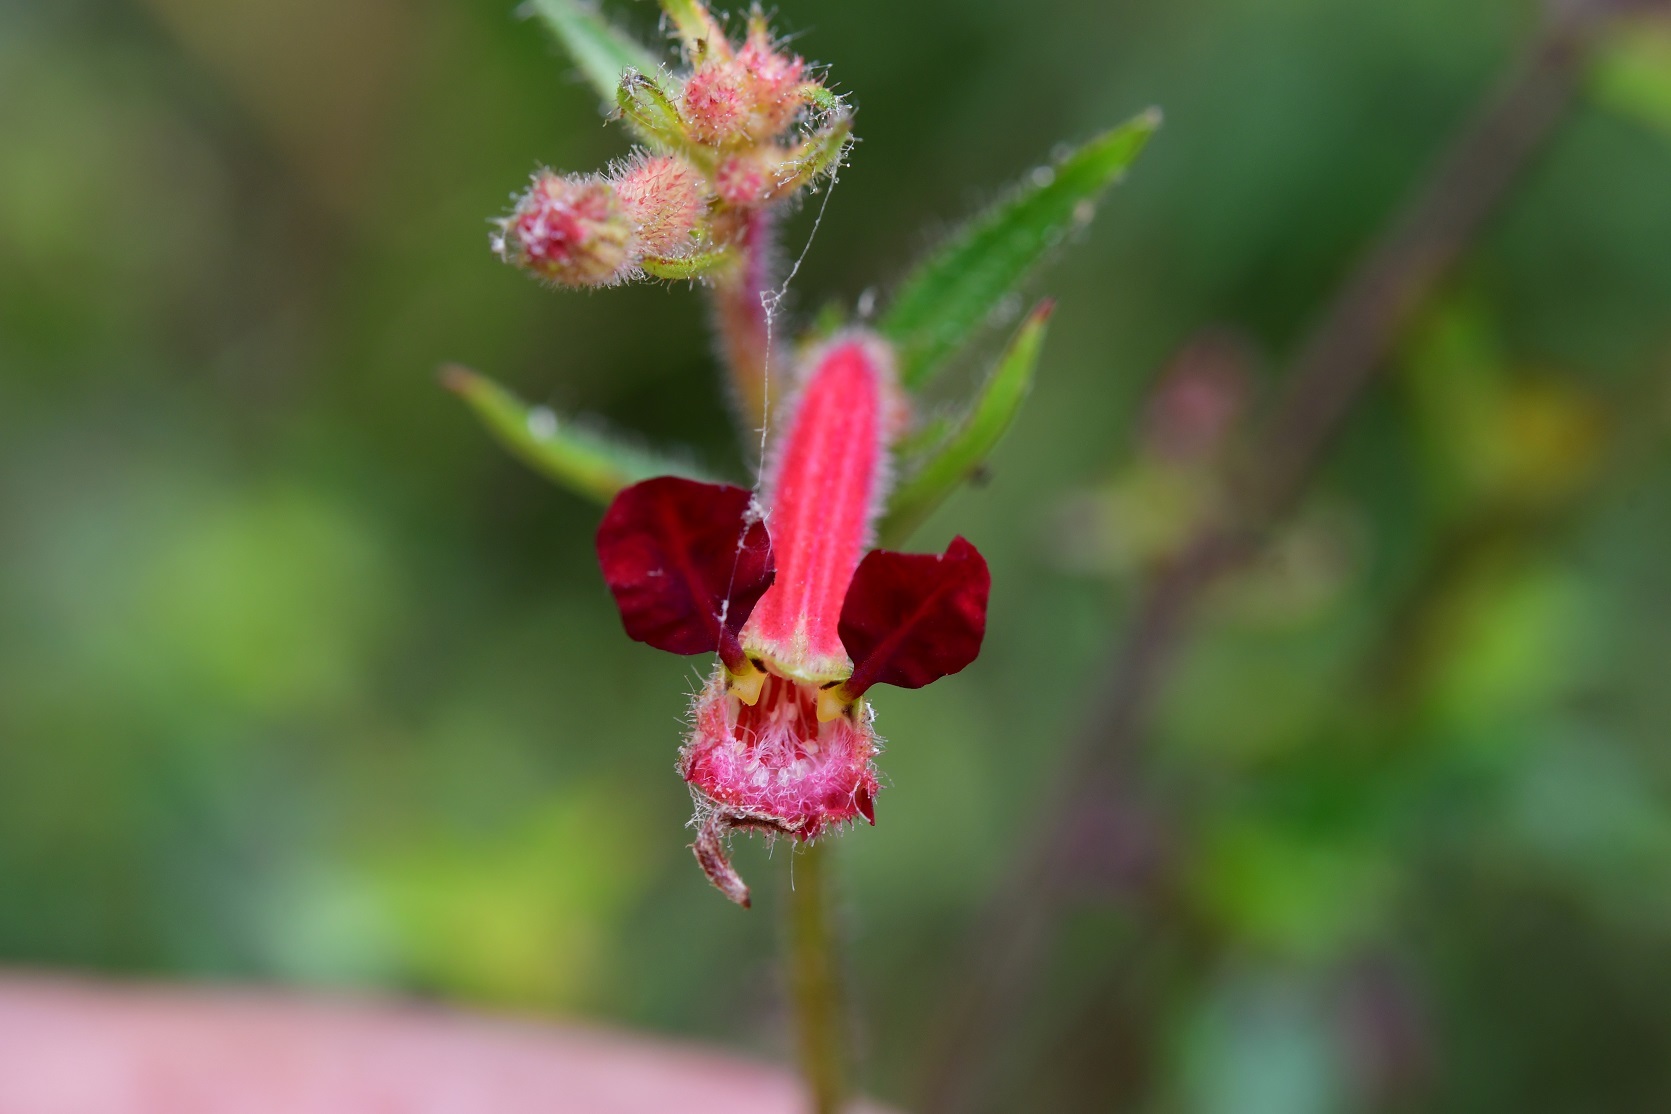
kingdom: Plantae
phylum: Tracheophyta
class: Magnoliopsida
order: Myrtales
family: Lythraceae
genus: Cuphea
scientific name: Cuphea hookeriana
